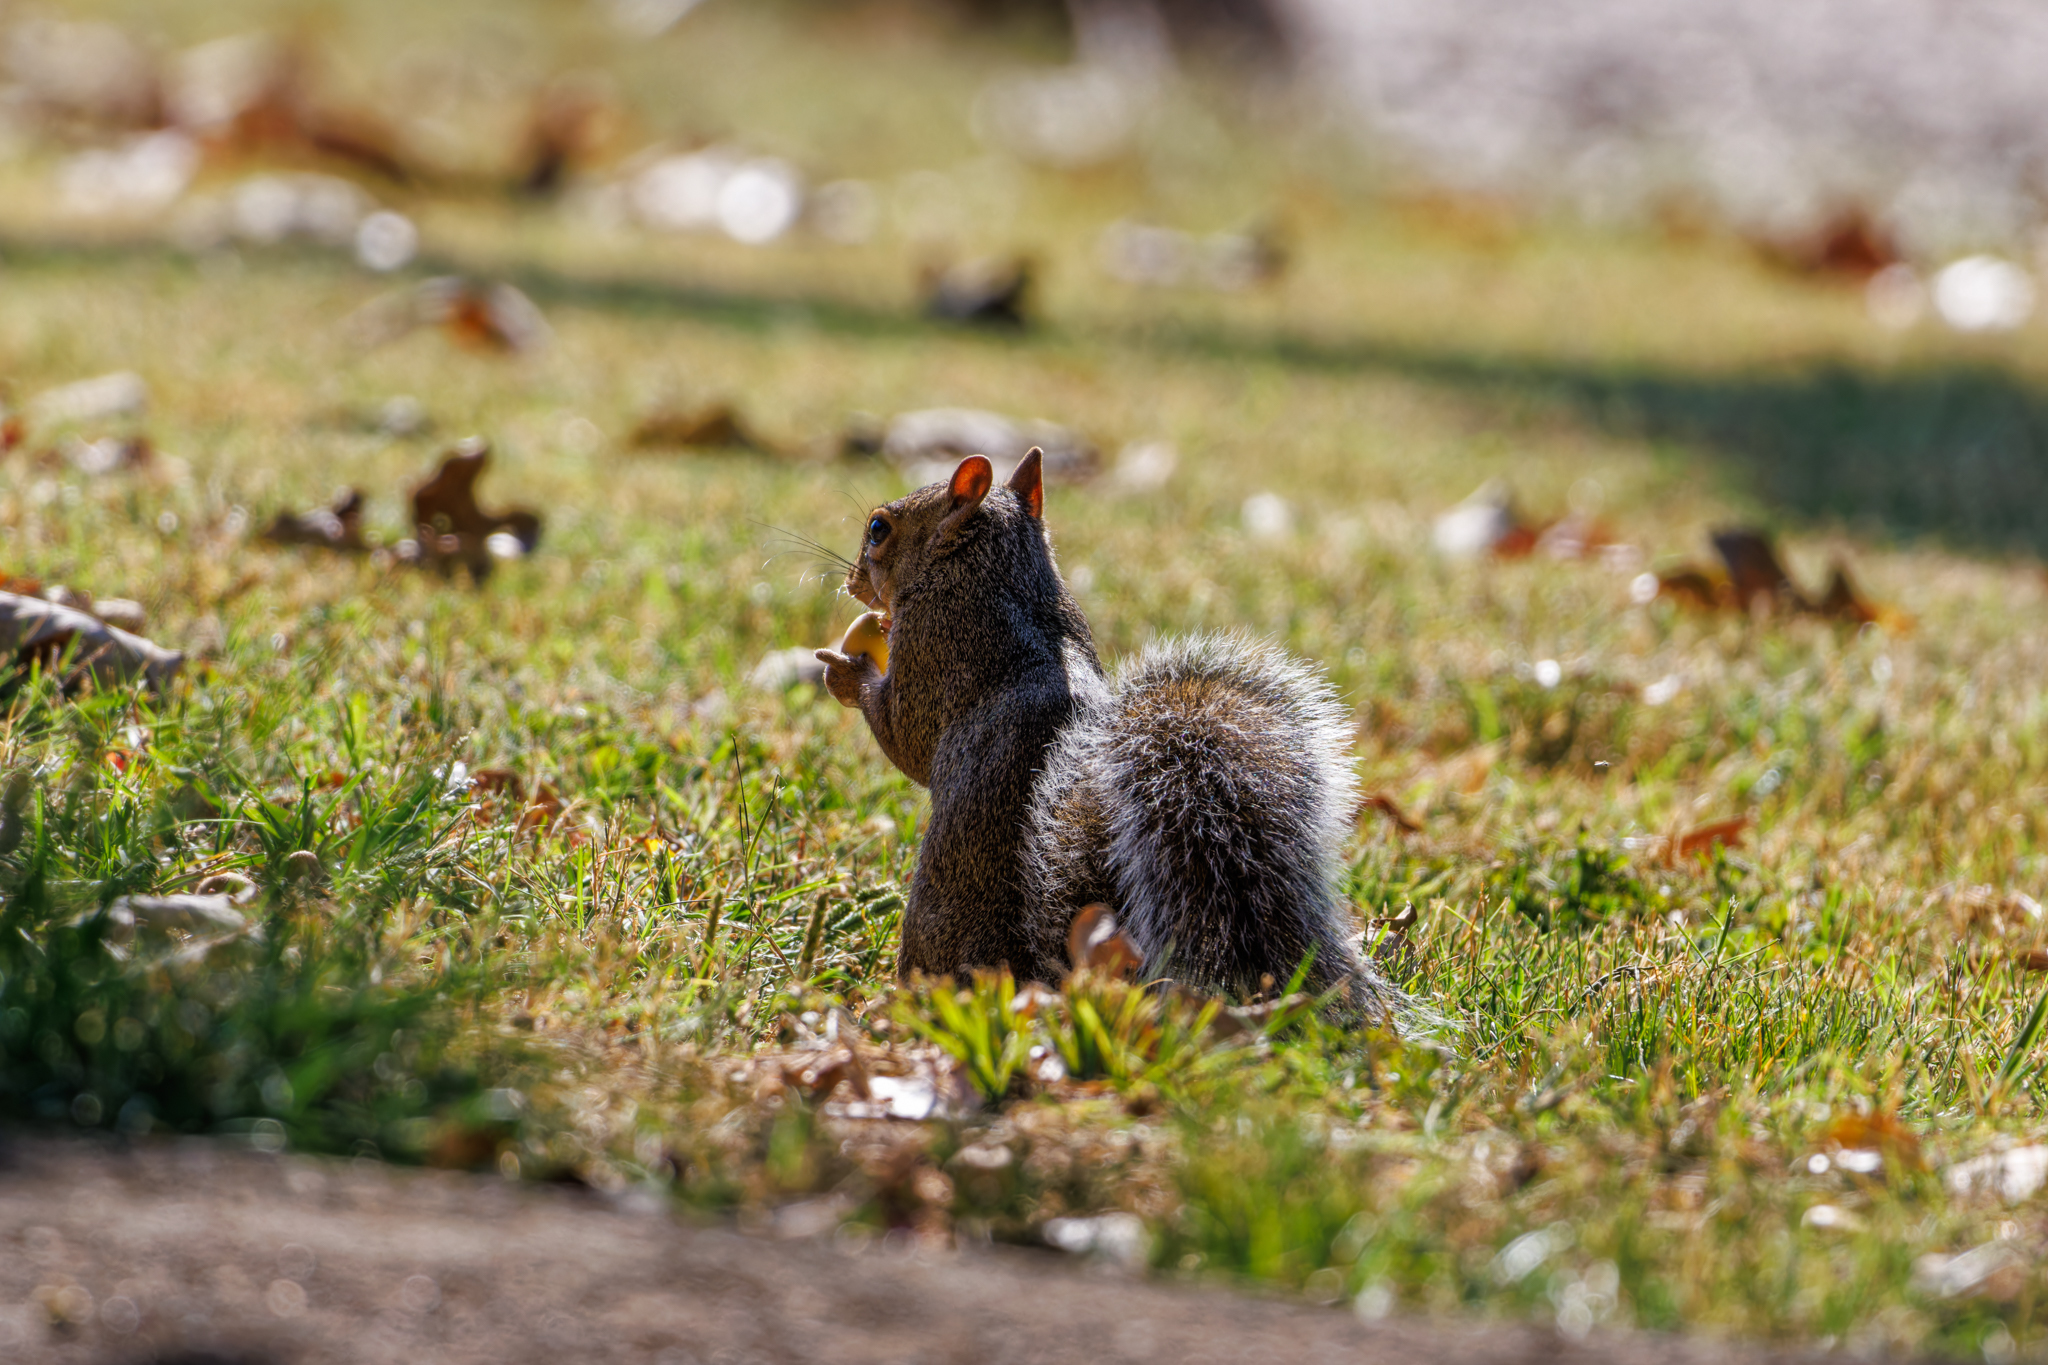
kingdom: Animalia
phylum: Chordata
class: Mammalia
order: Rodentia
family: Sciuridae
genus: Sciurus
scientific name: Sciurus carolinensis
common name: Eastern gray squirrel
